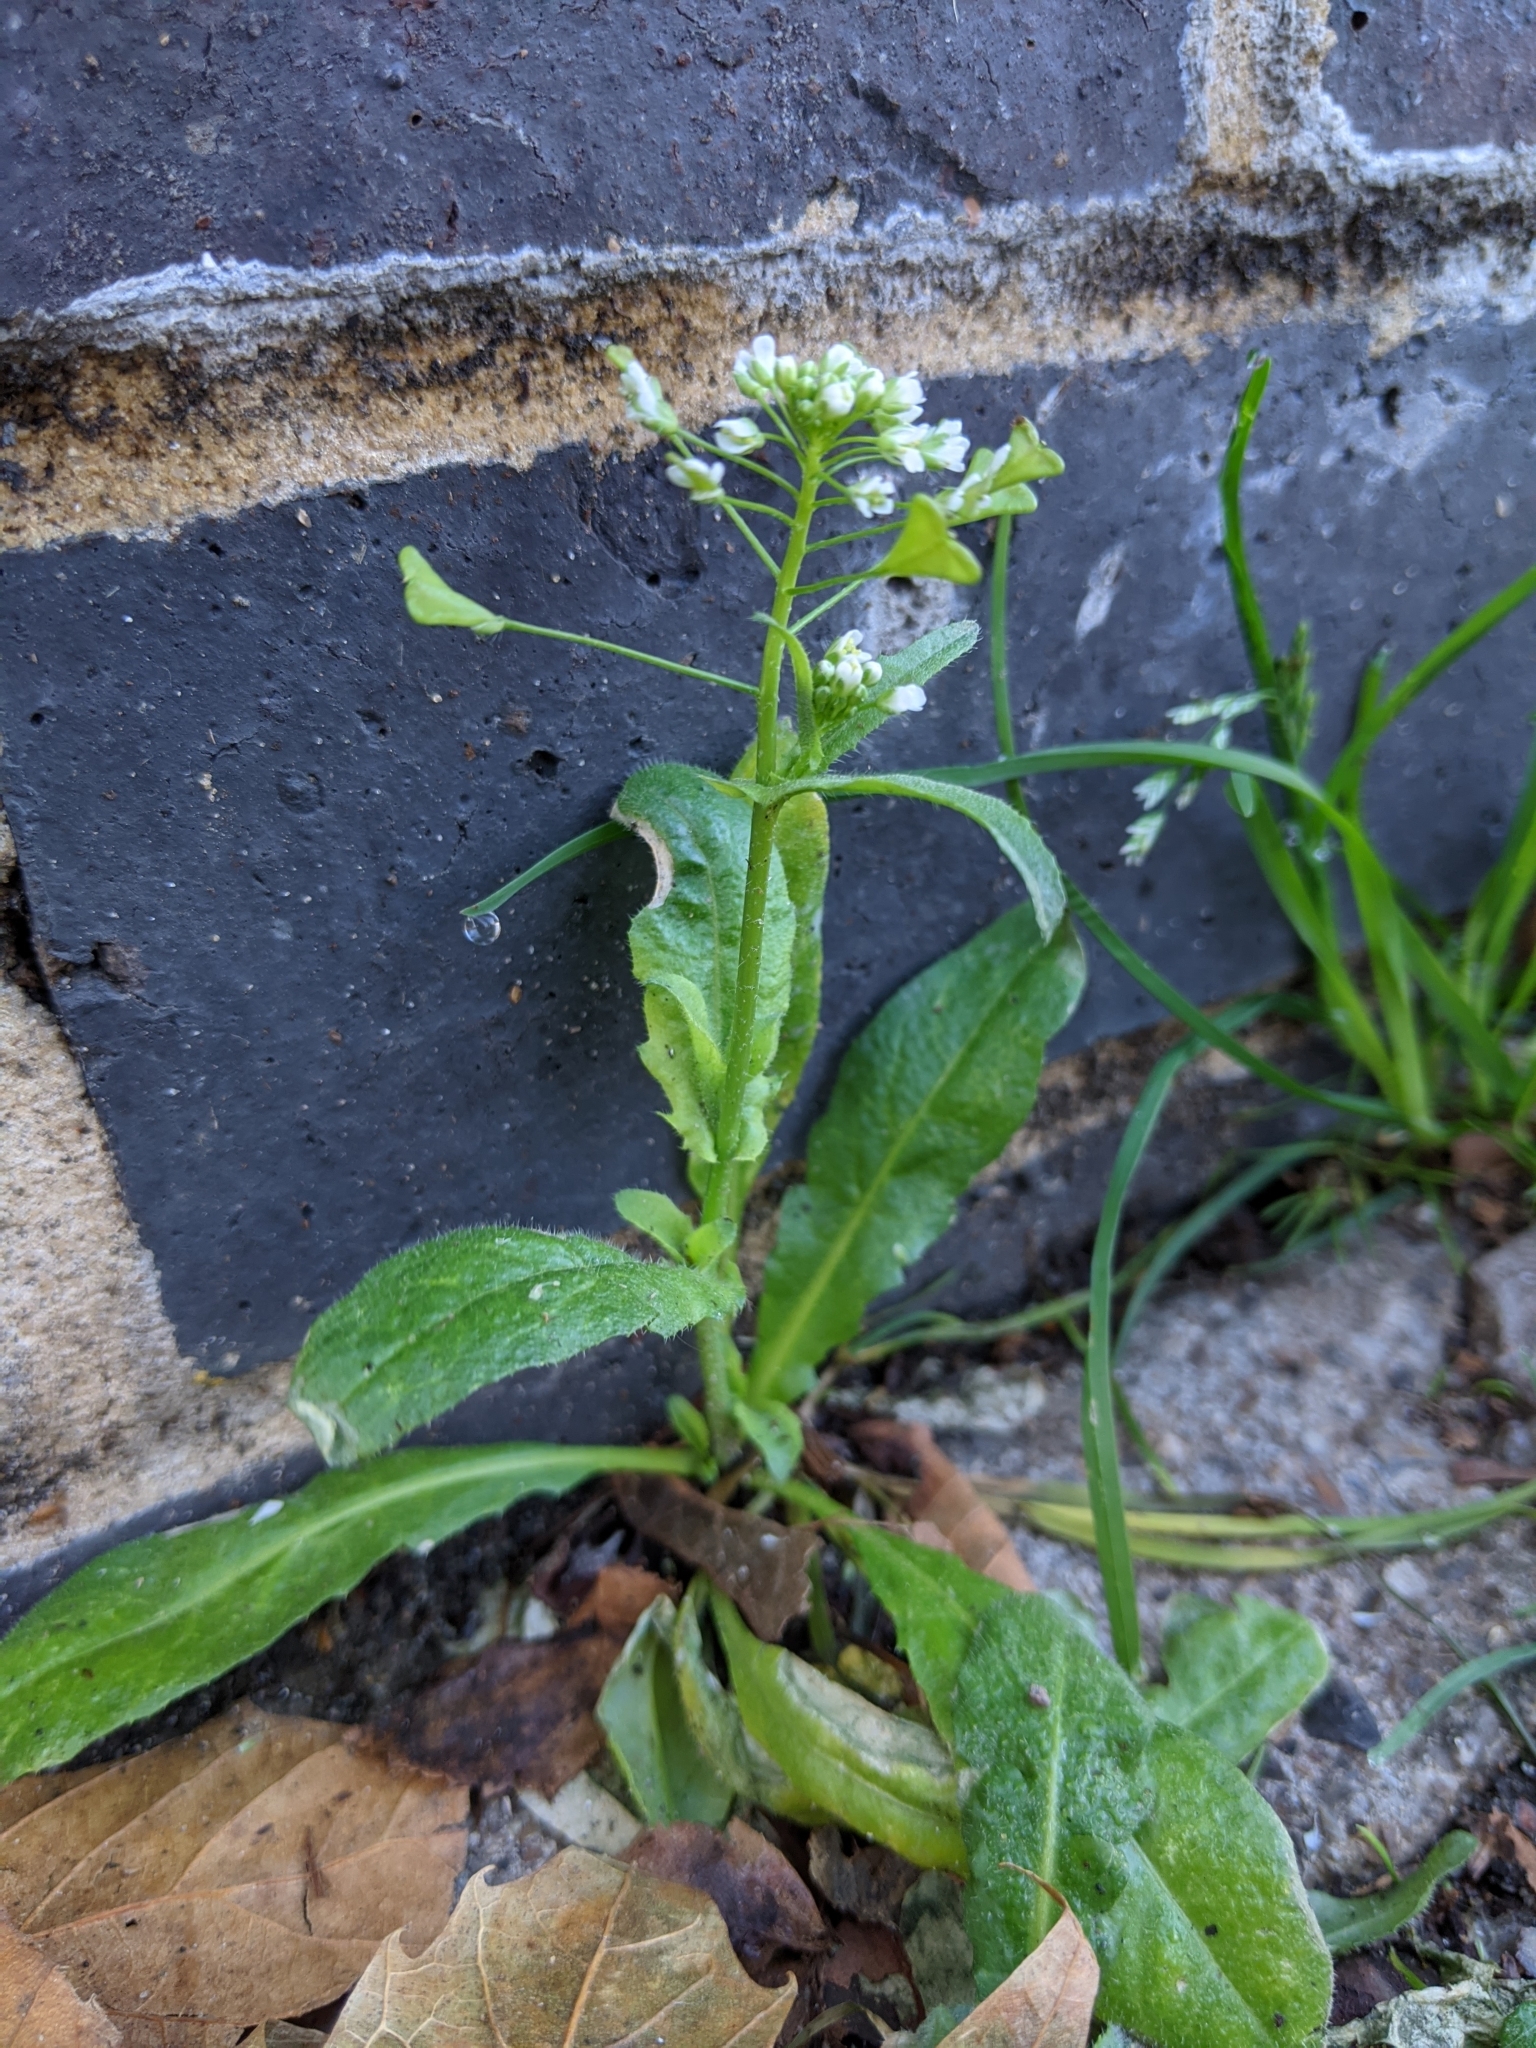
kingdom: Plantae
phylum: Tracheophyta
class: Magnoliopsida
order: Brassicales
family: Brassicaceae
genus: Capsella
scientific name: Capsella bursa-pastoris
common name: Shepherd's purse
